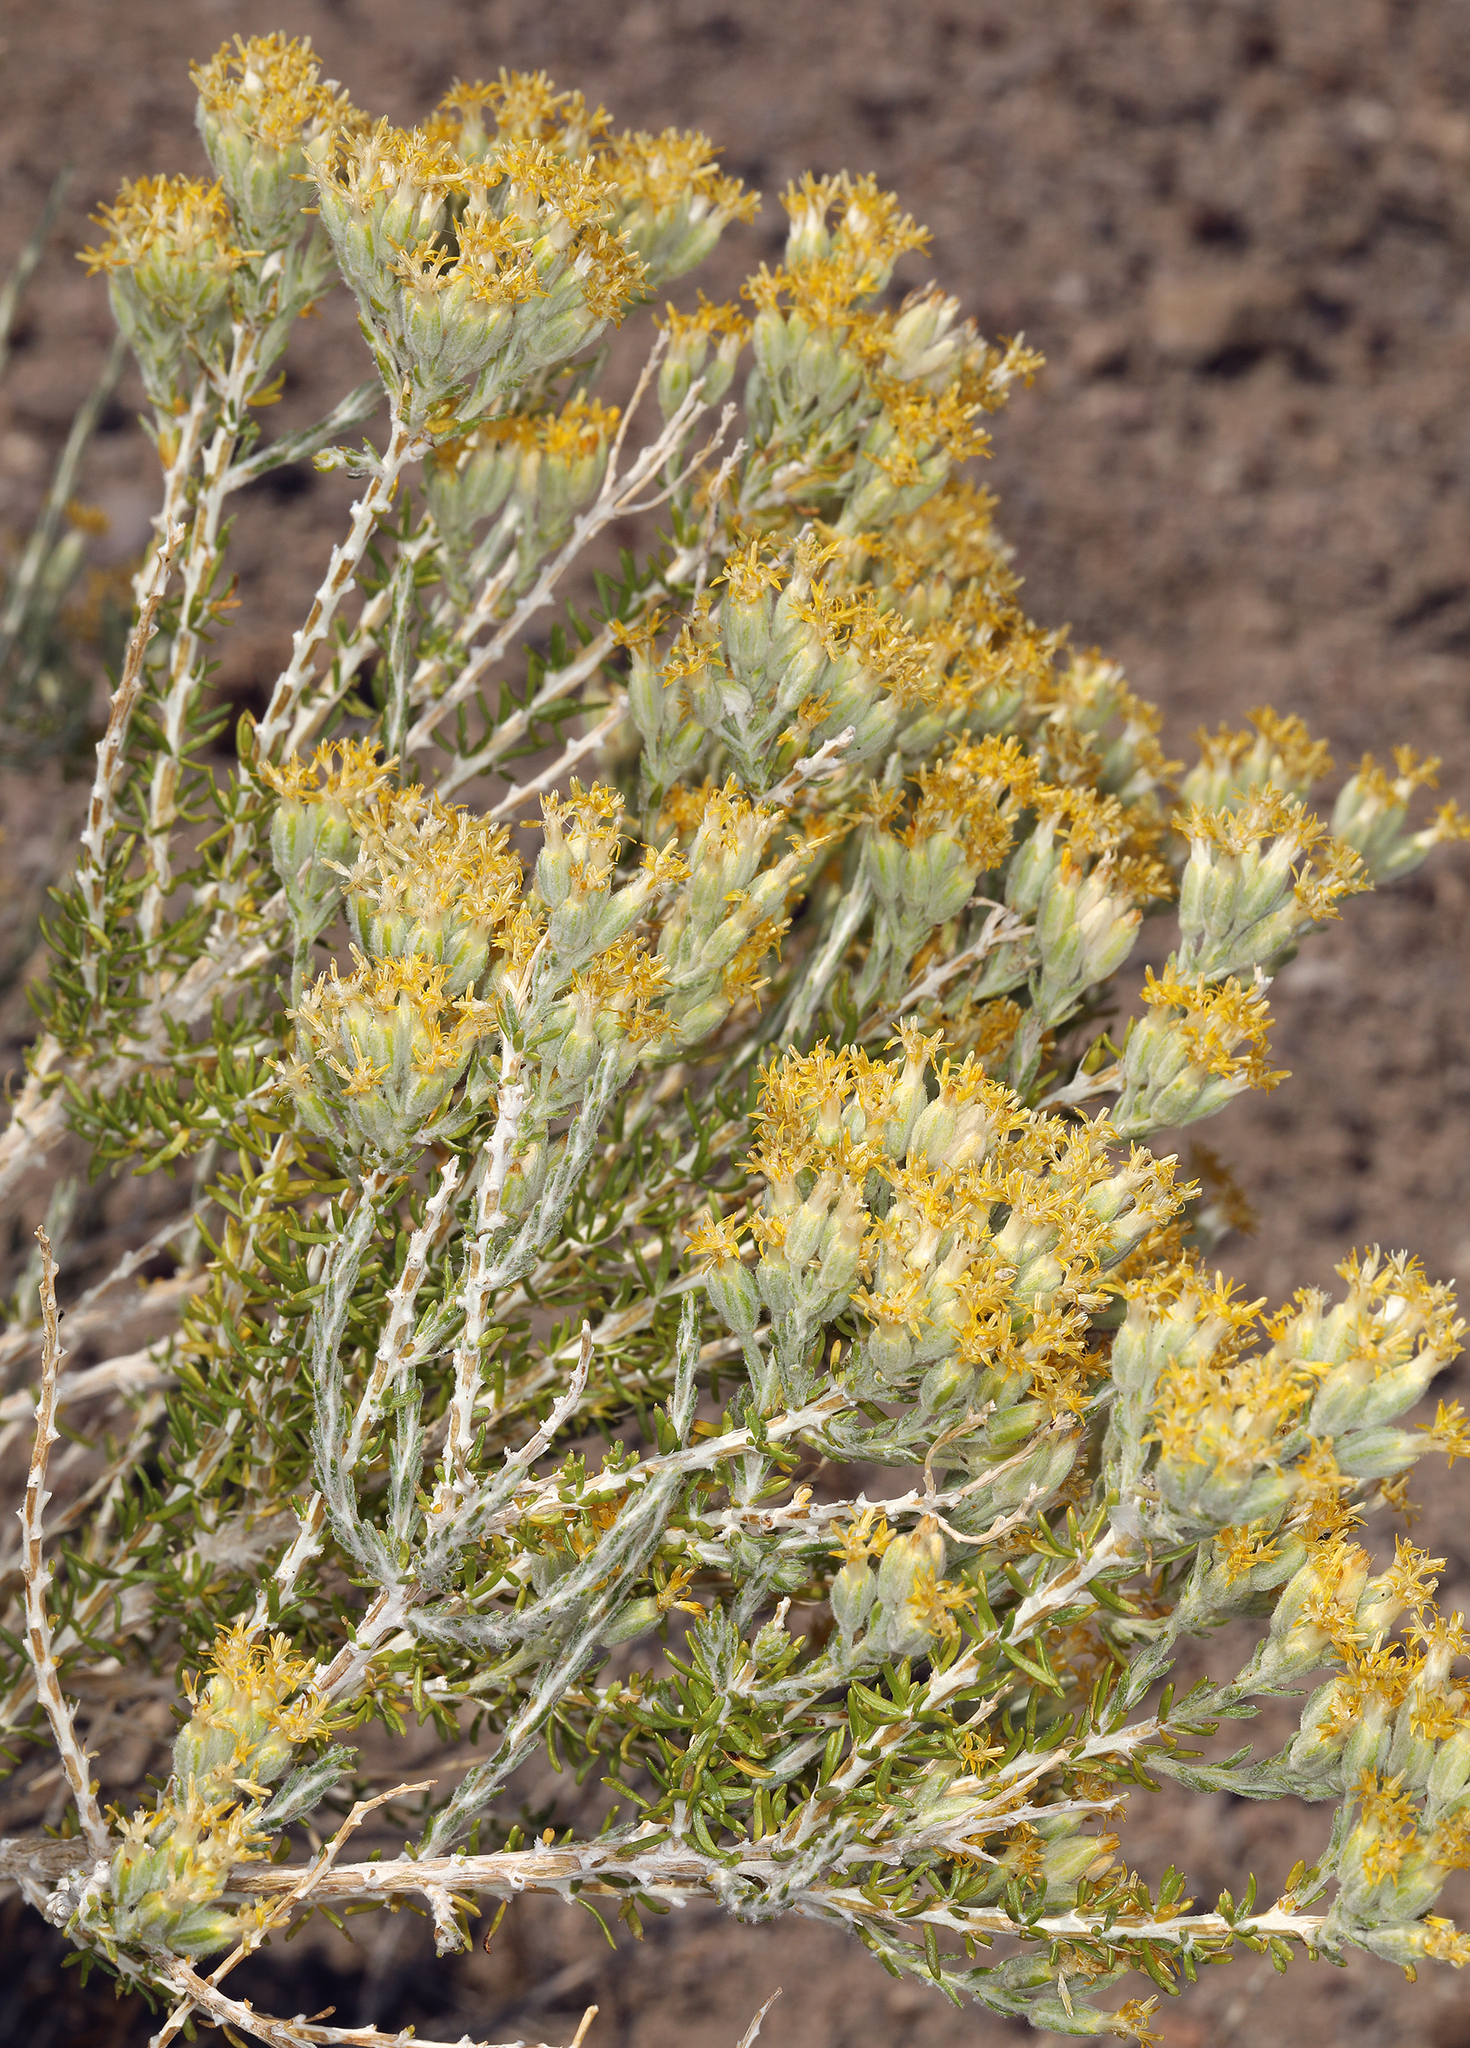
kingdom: Plantae
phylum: Tracheophyta
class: Magnoliopsida
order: Asterales
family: Asteraceae
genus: Tetradymia
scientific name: Tetradymia glabrata
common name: Smooth tetradymia
